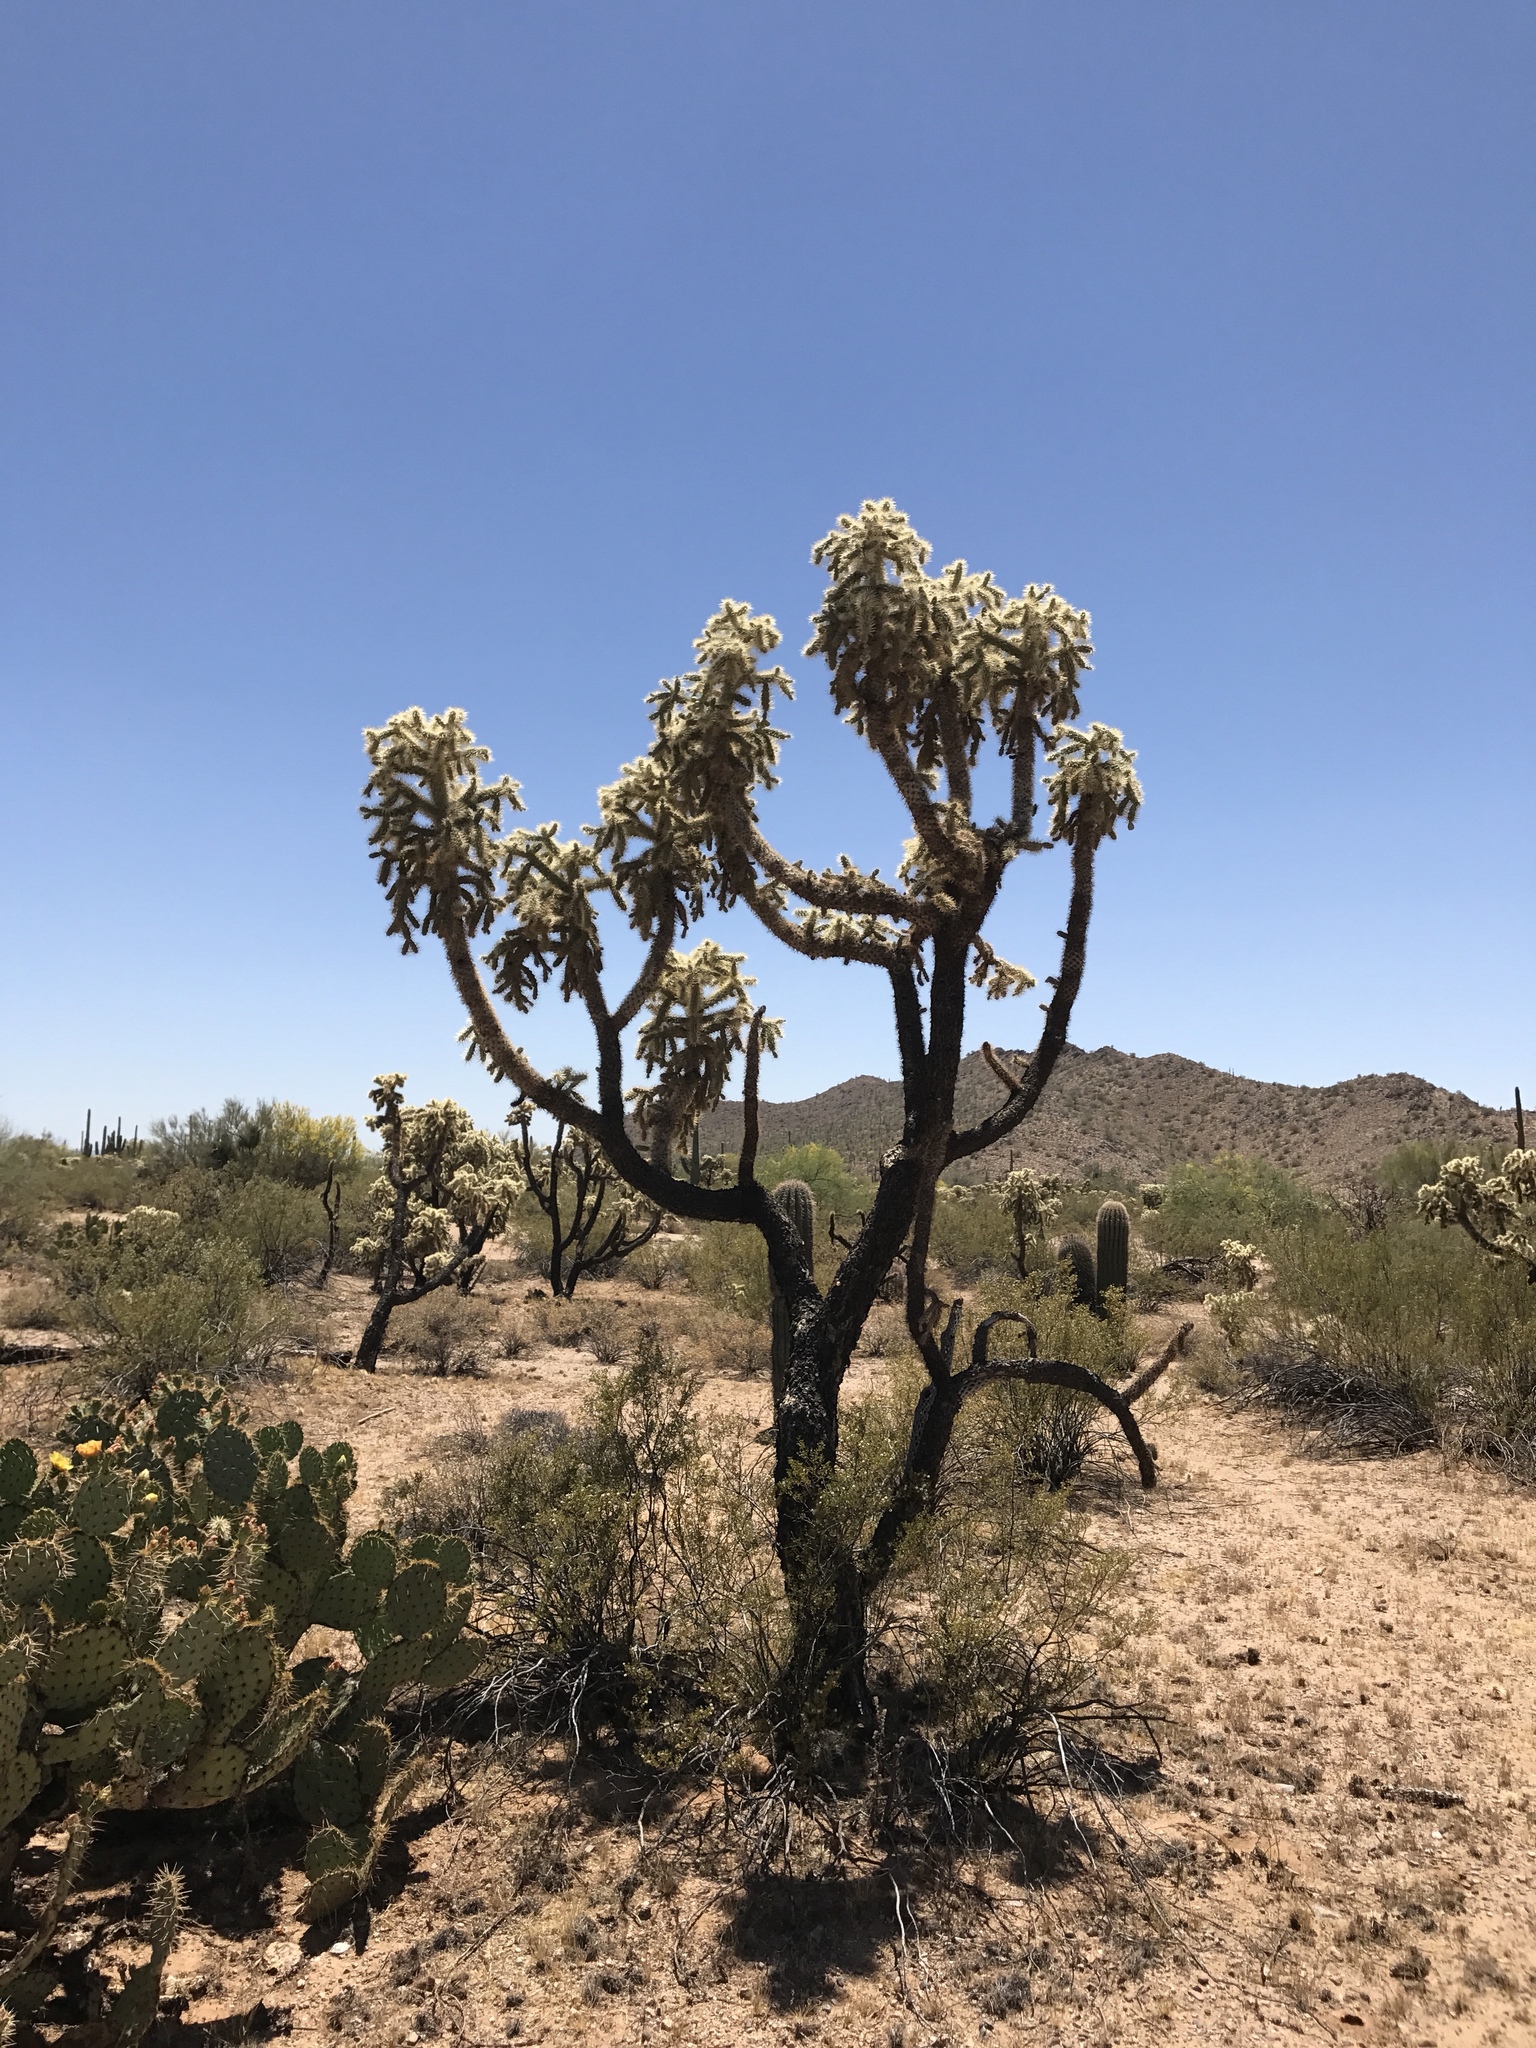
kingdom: Plantae
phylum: Tracheophyta
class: Magnoliopsida
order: Caryophyllales
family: Cactaceae
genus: Cylindropuntia
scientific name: Cylindropuntia fulgida
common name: Jumping cholla
